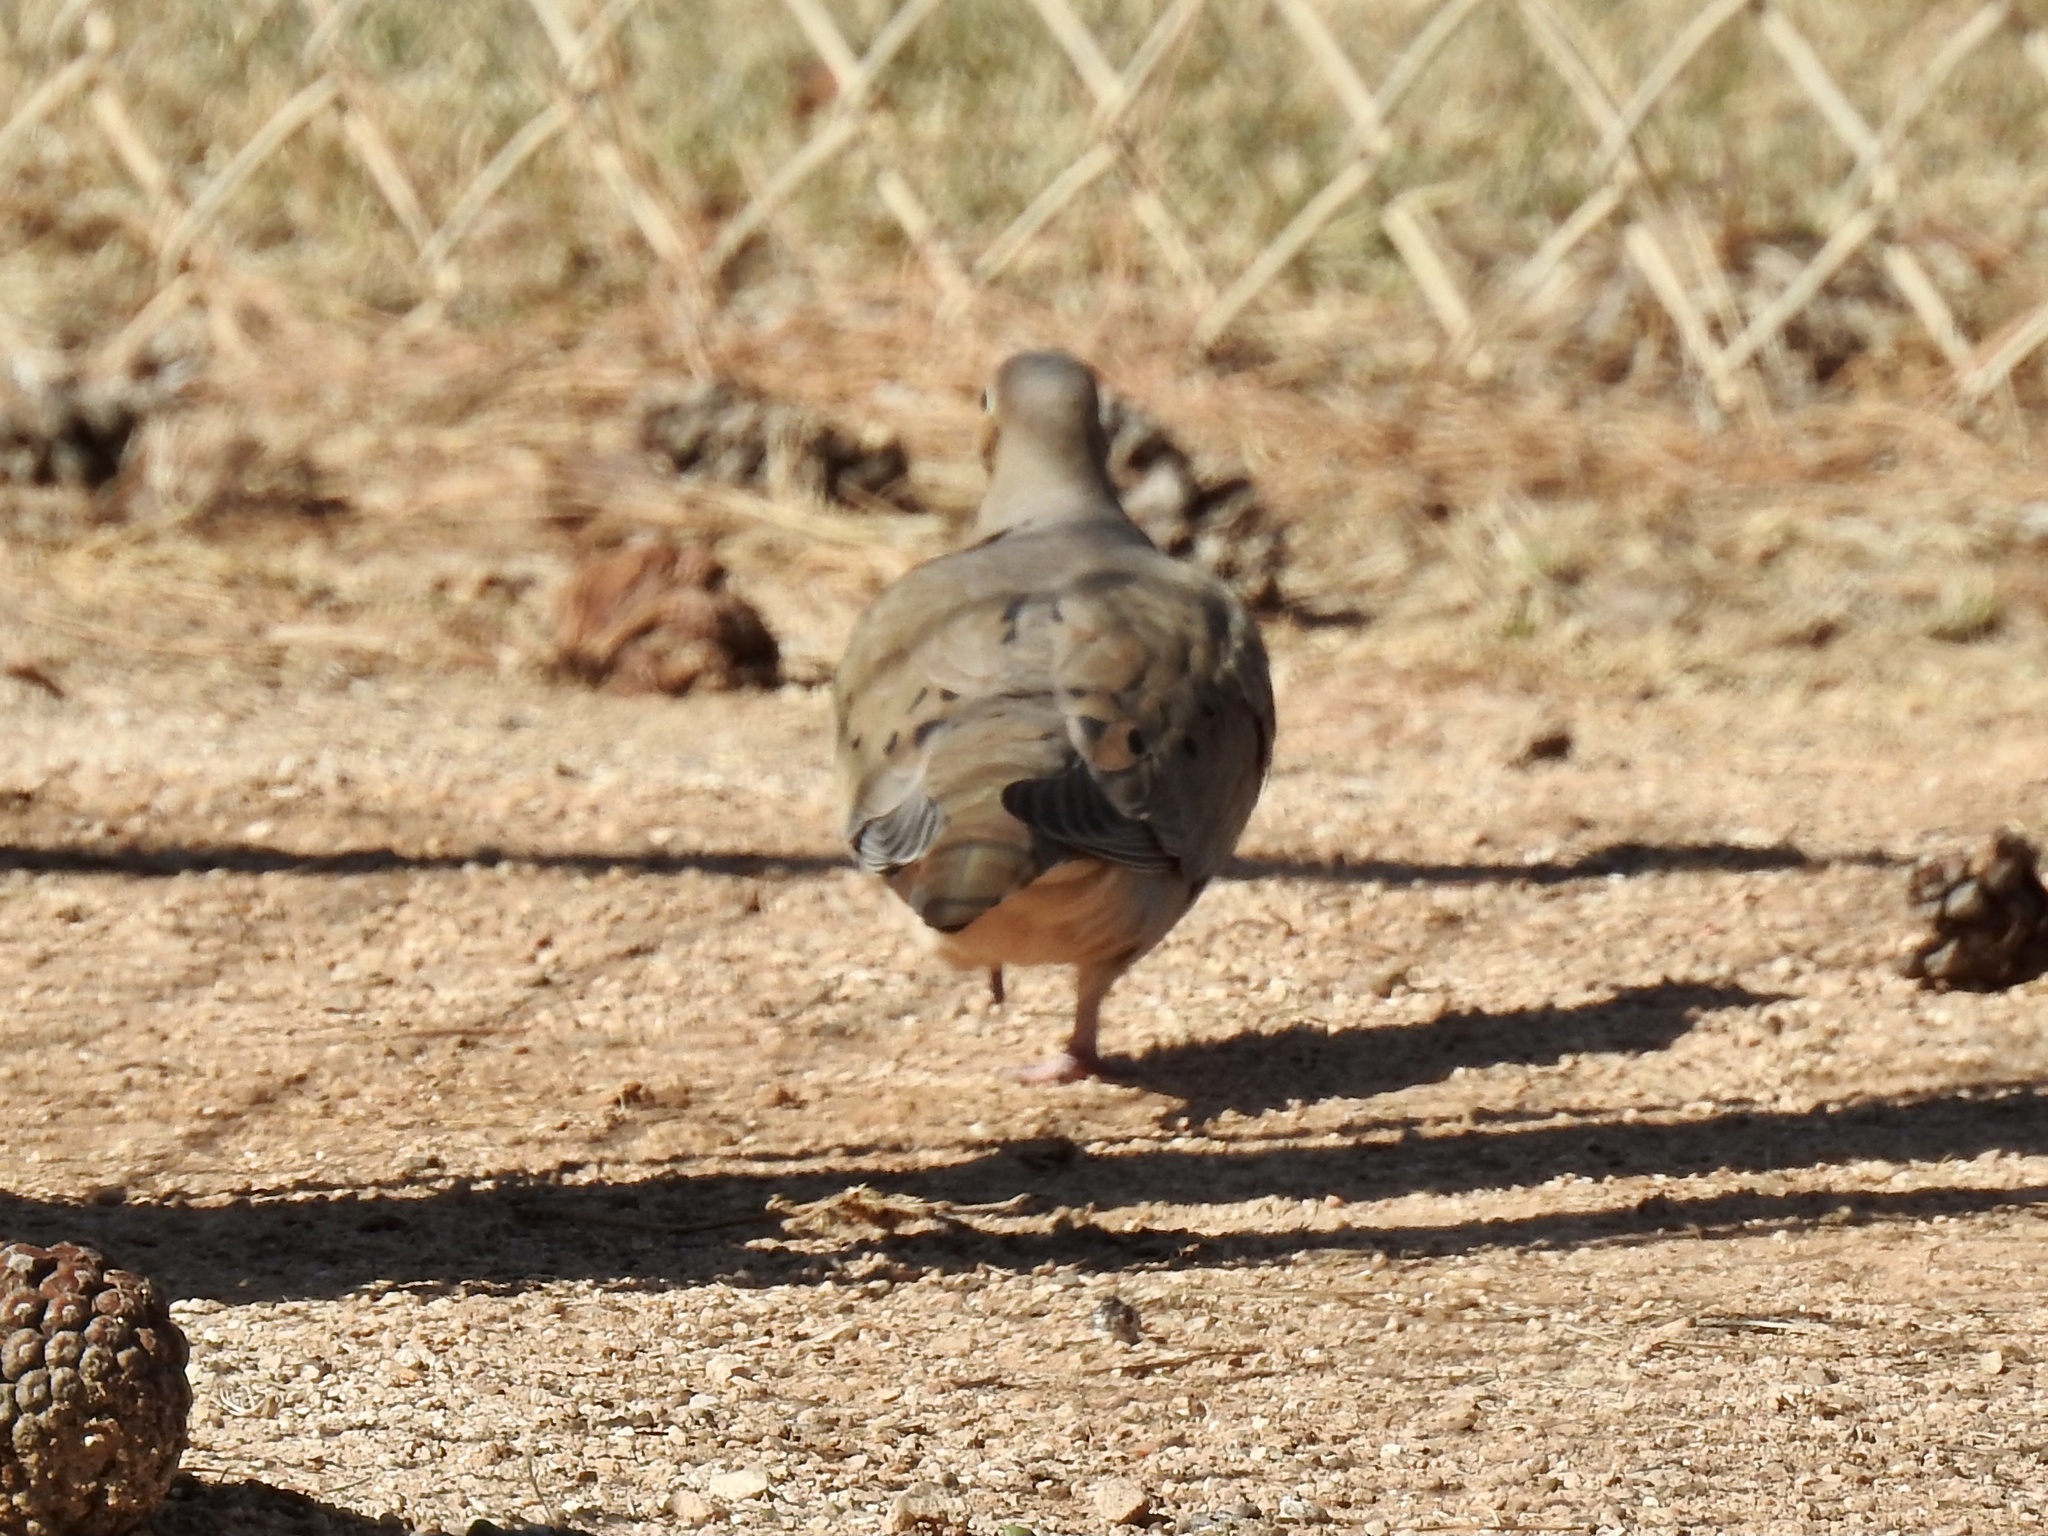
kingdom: Animalia
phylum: Chordata
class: Aves
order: Columbiformes
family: Columbidae
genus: Zenaida
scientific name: Zenaida macroura
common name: Mourning dove
